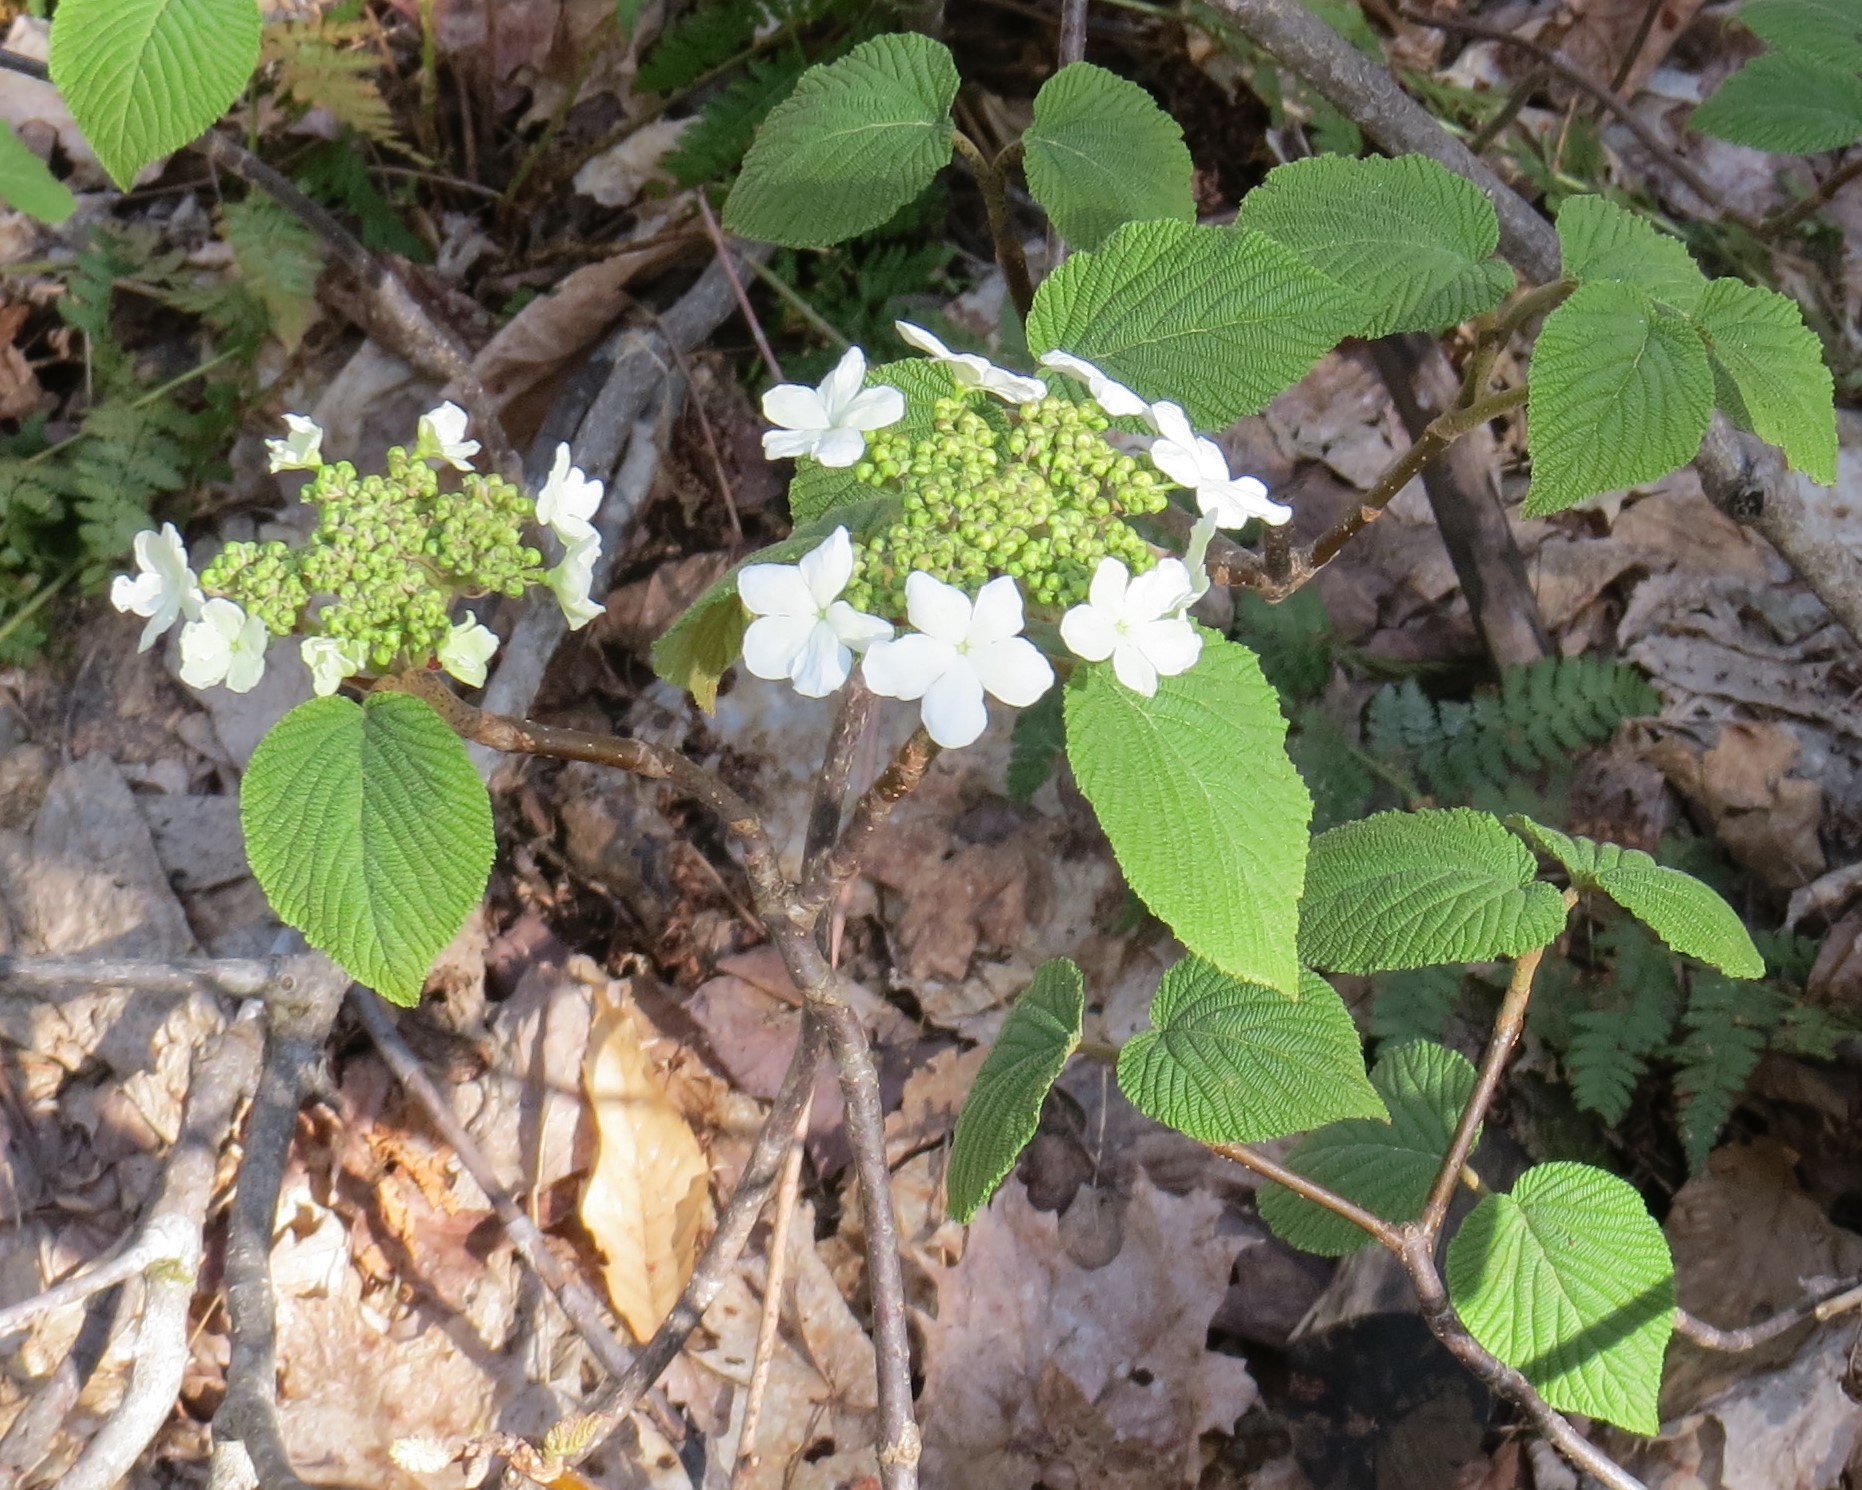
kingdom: Plantae
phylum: Tracheophyta
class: Magnoliopsida
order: Dipsacales
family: Viburnaceae
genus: Viburnum
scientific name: Viburnum lantanoides
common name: Hobblebush
